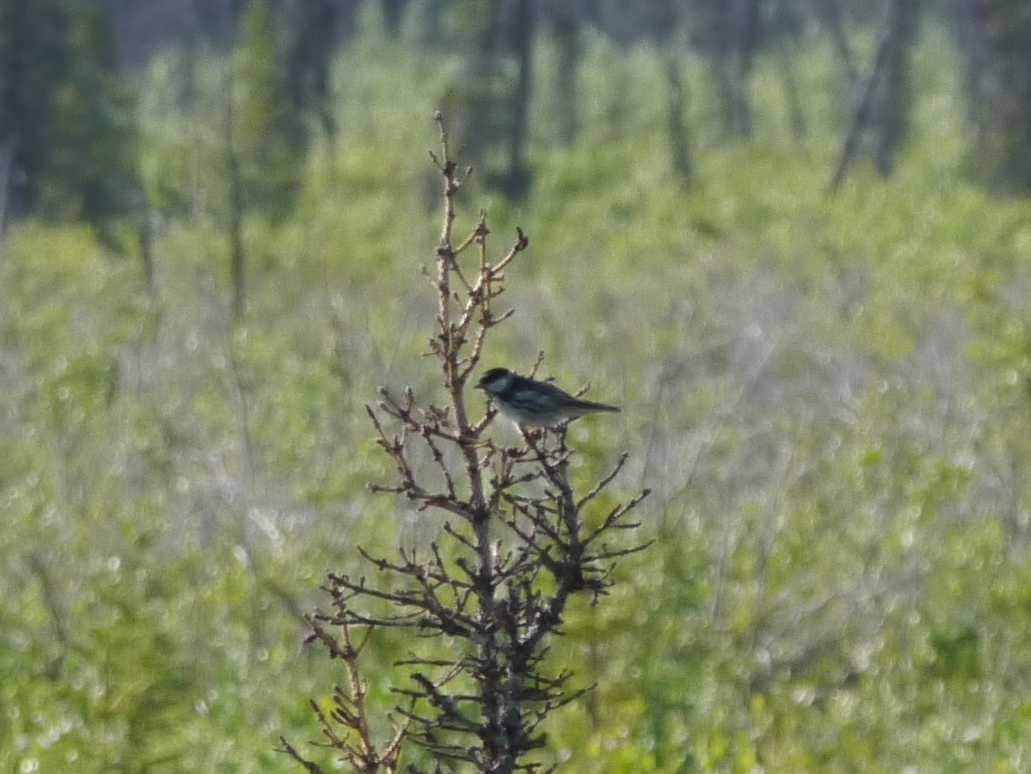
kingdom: Animalia
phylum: Chordata
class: Aves
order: Passeriformes
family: Parulidae
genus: Setophaga
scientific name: Setophaga striata
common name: Blackpoll warbler
